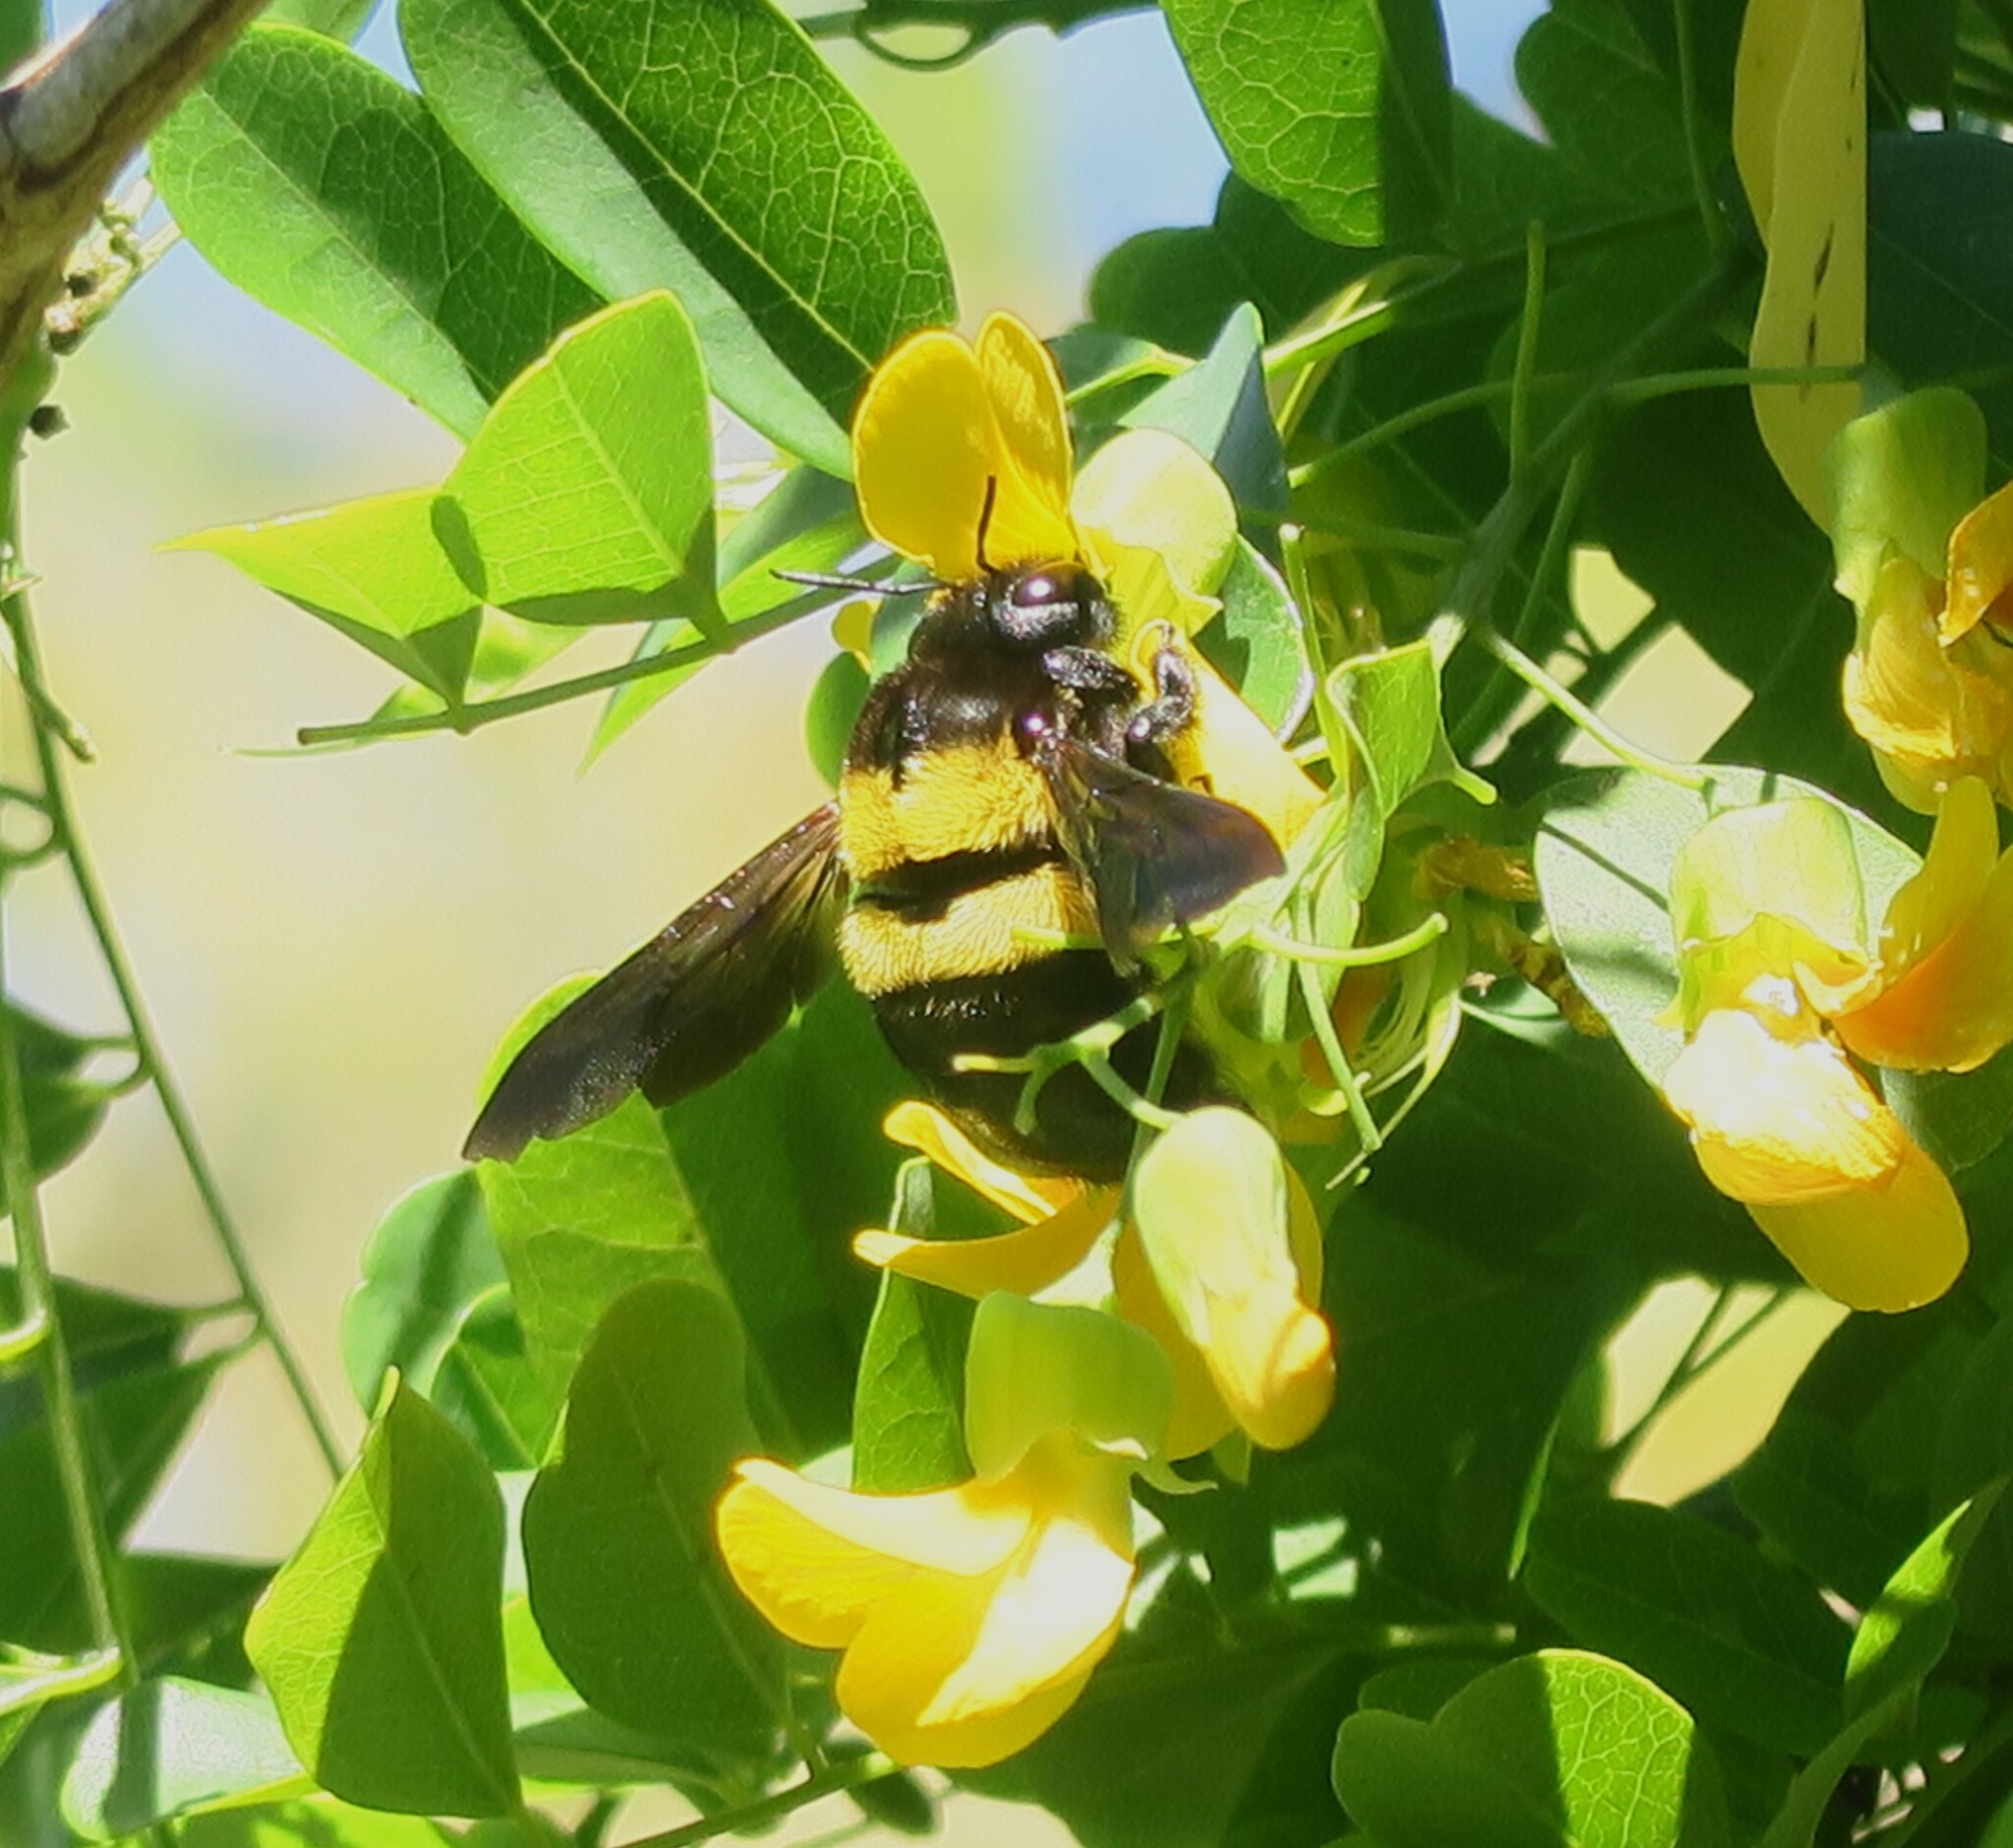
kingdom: Animalia
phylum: Arthropoda
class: Insecta
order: Hymenoptera
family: Apidae
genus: Xylocopa
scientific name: Xylocopa caffra
